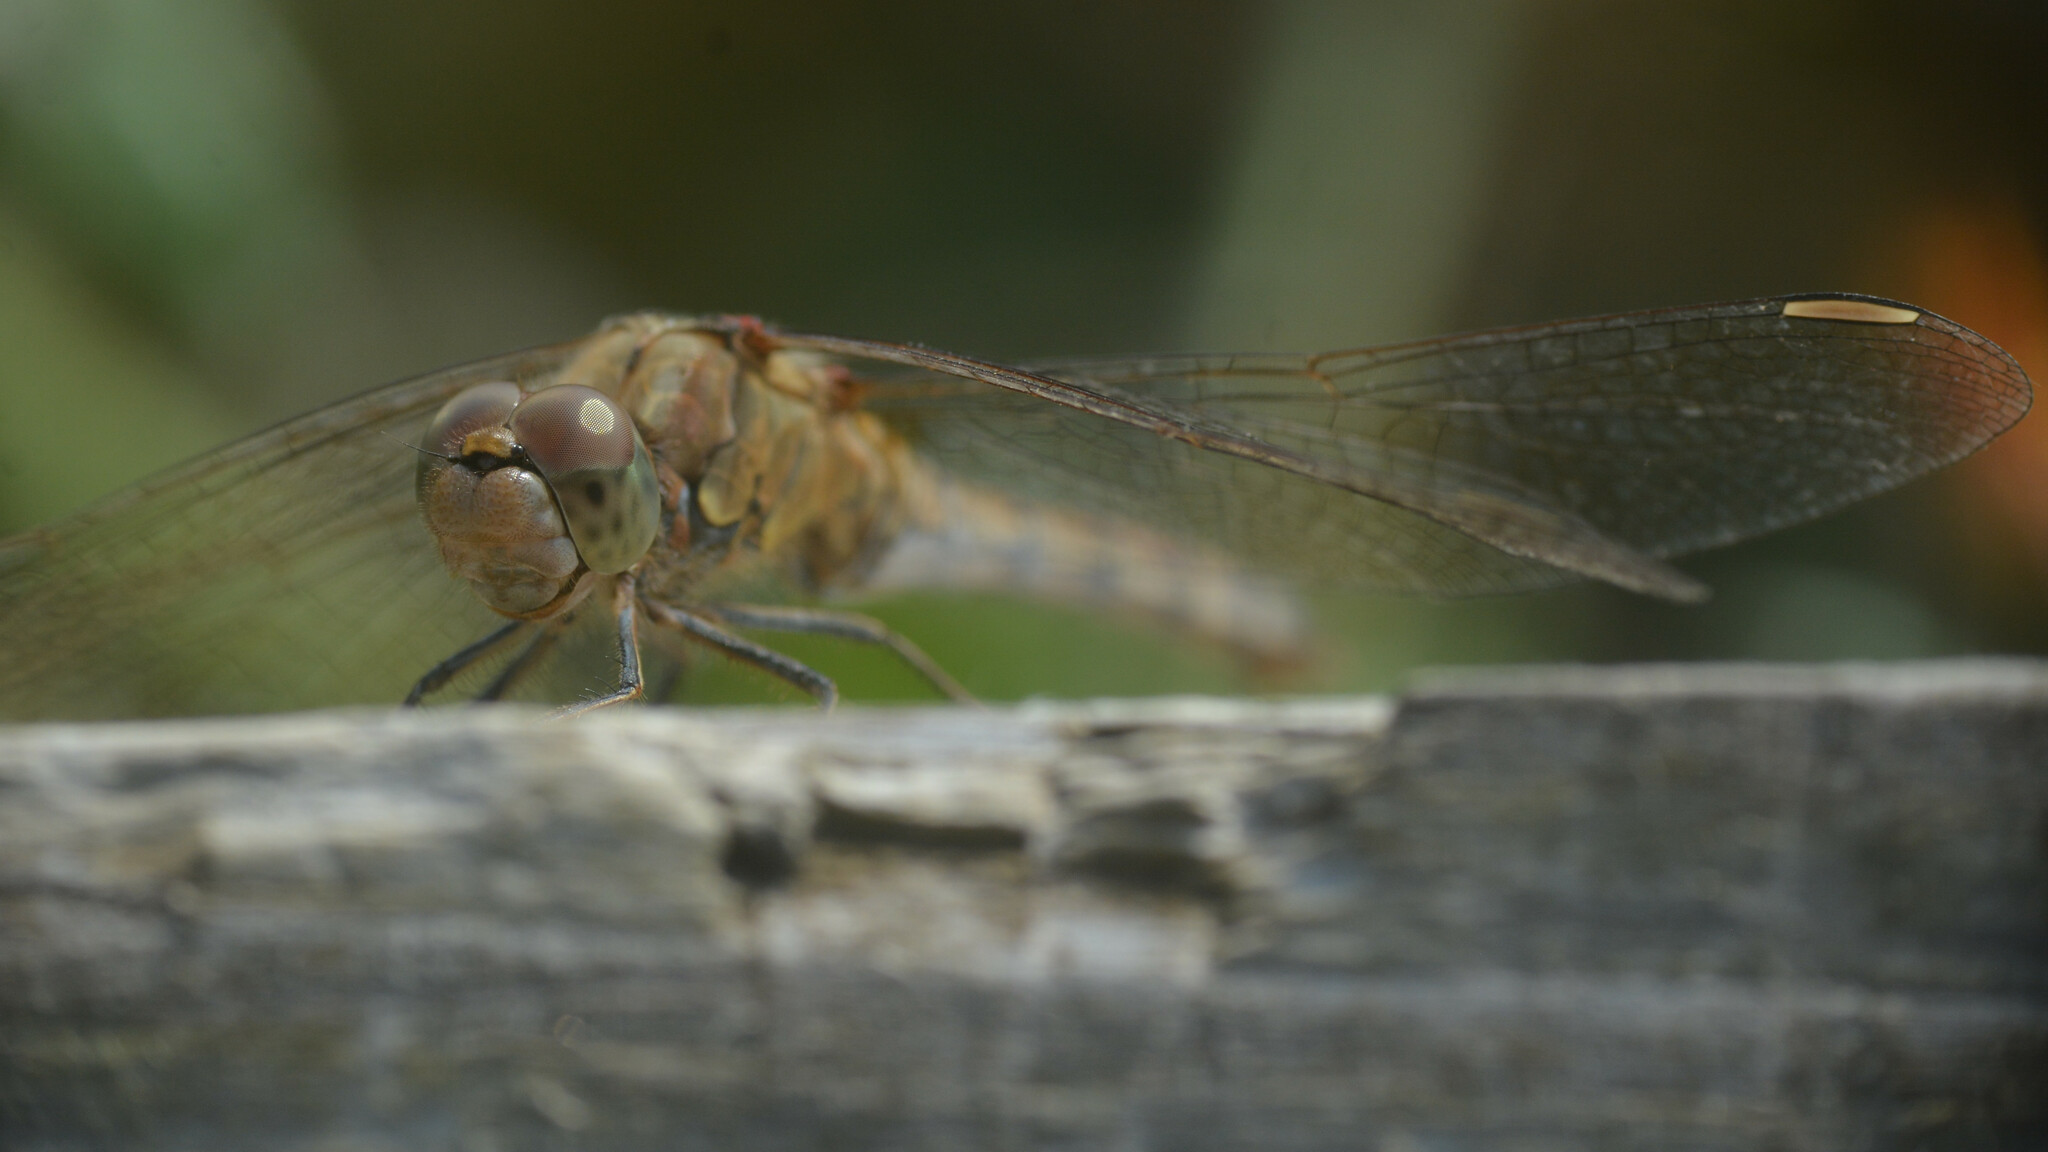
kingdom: Animalia
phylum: Arthropoda
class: Insecta
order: Odonata
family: Libellulidae
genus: Sympetrum
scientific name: Sympetrum striolatum
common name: Common darter
